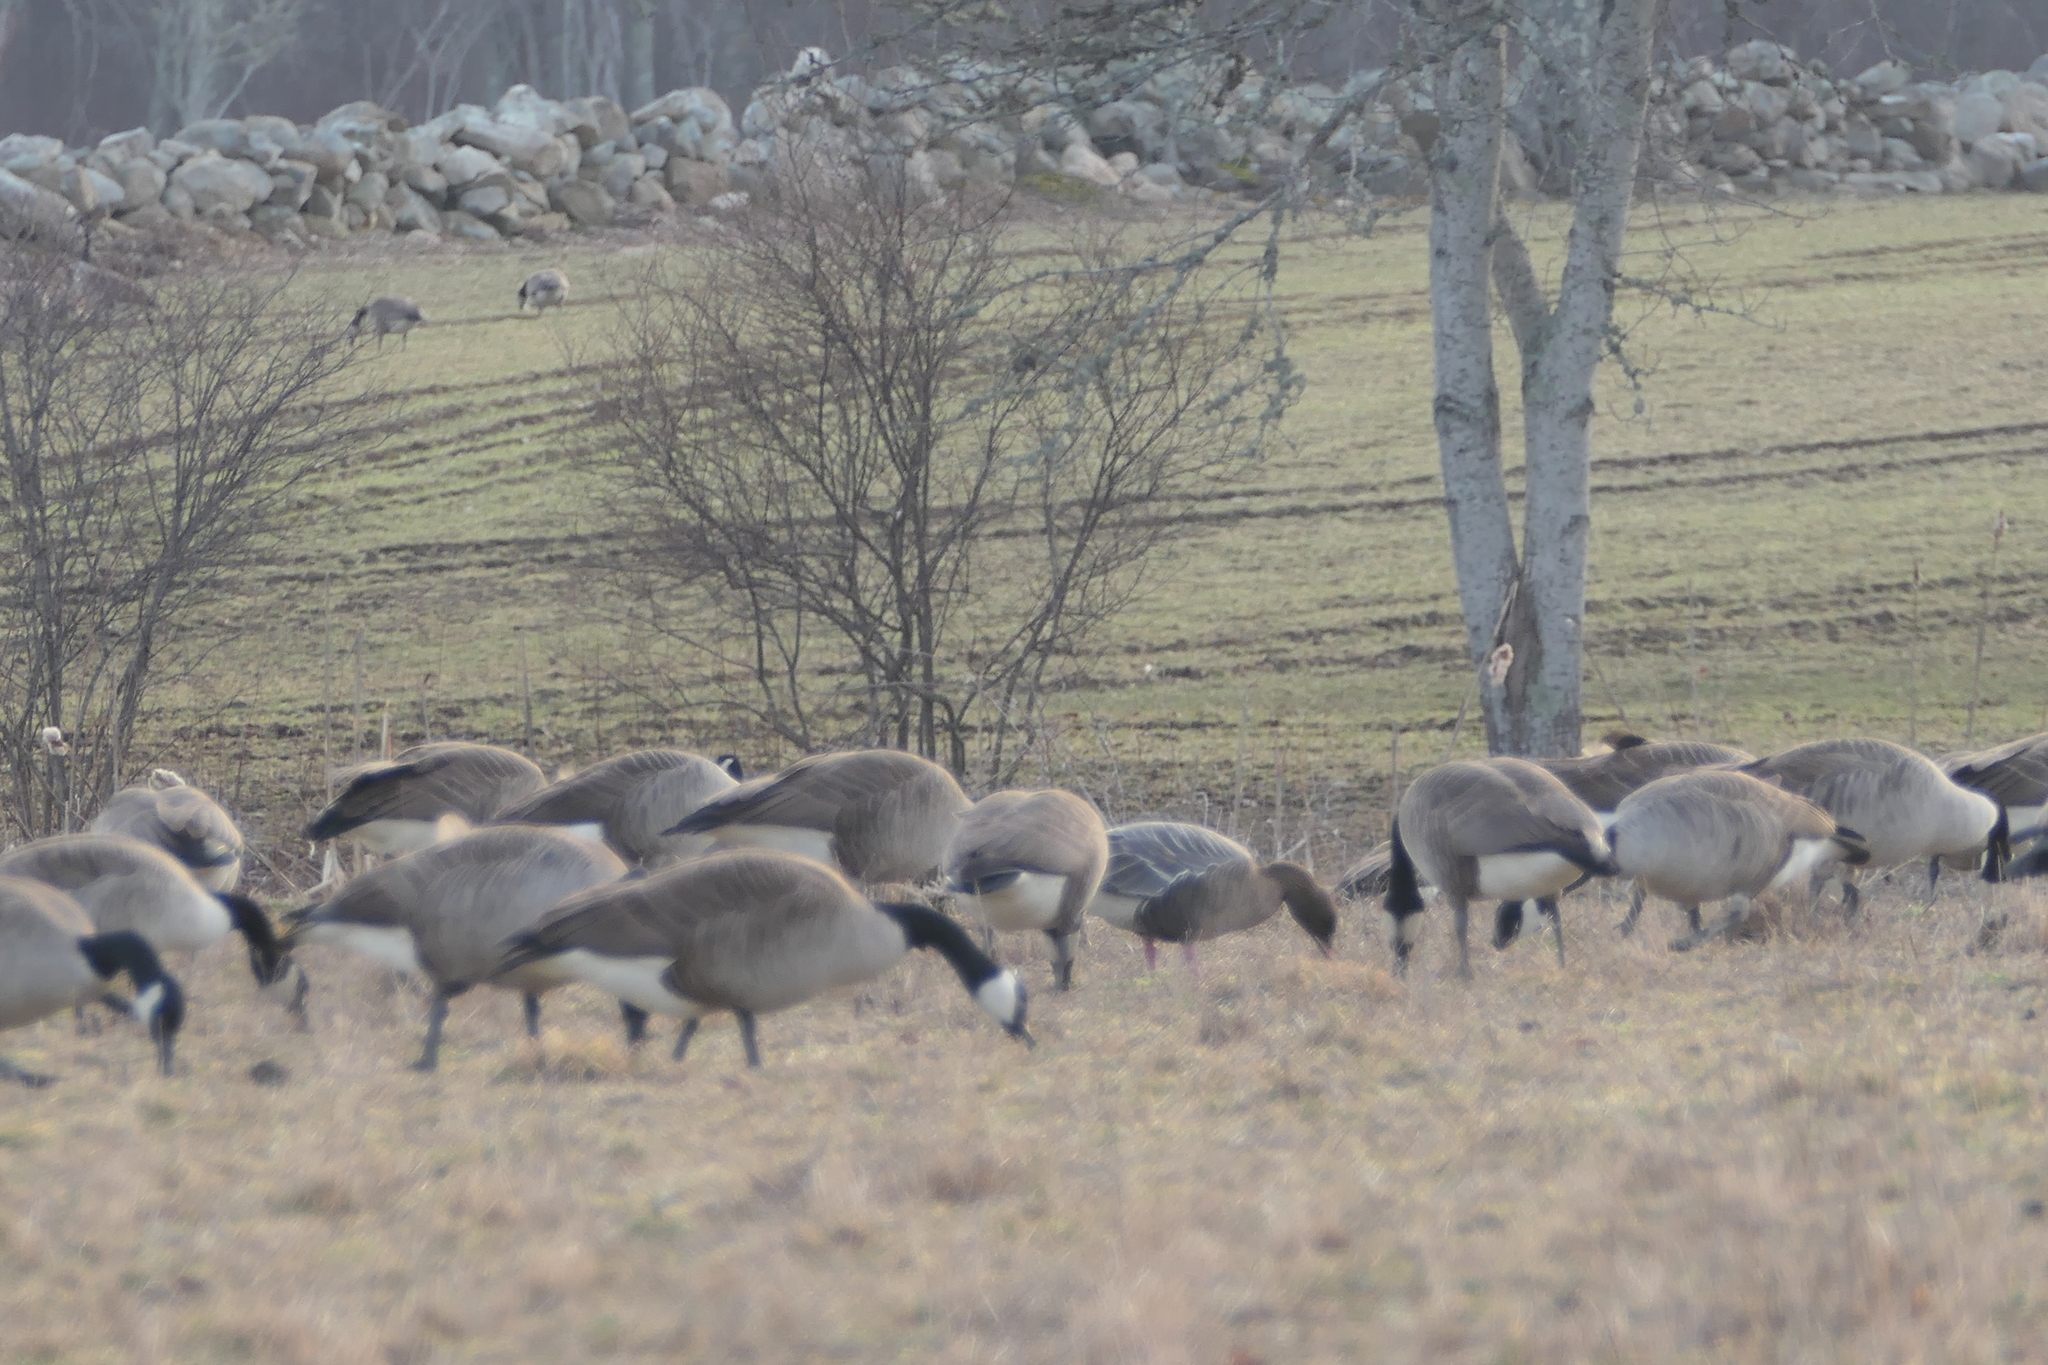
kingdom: Animalia
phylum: Chordata
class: Aves
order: Anseriformes
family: Anatidae
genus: Anser
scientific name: Anser brachyrhynchus
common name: Pink-footed goose
